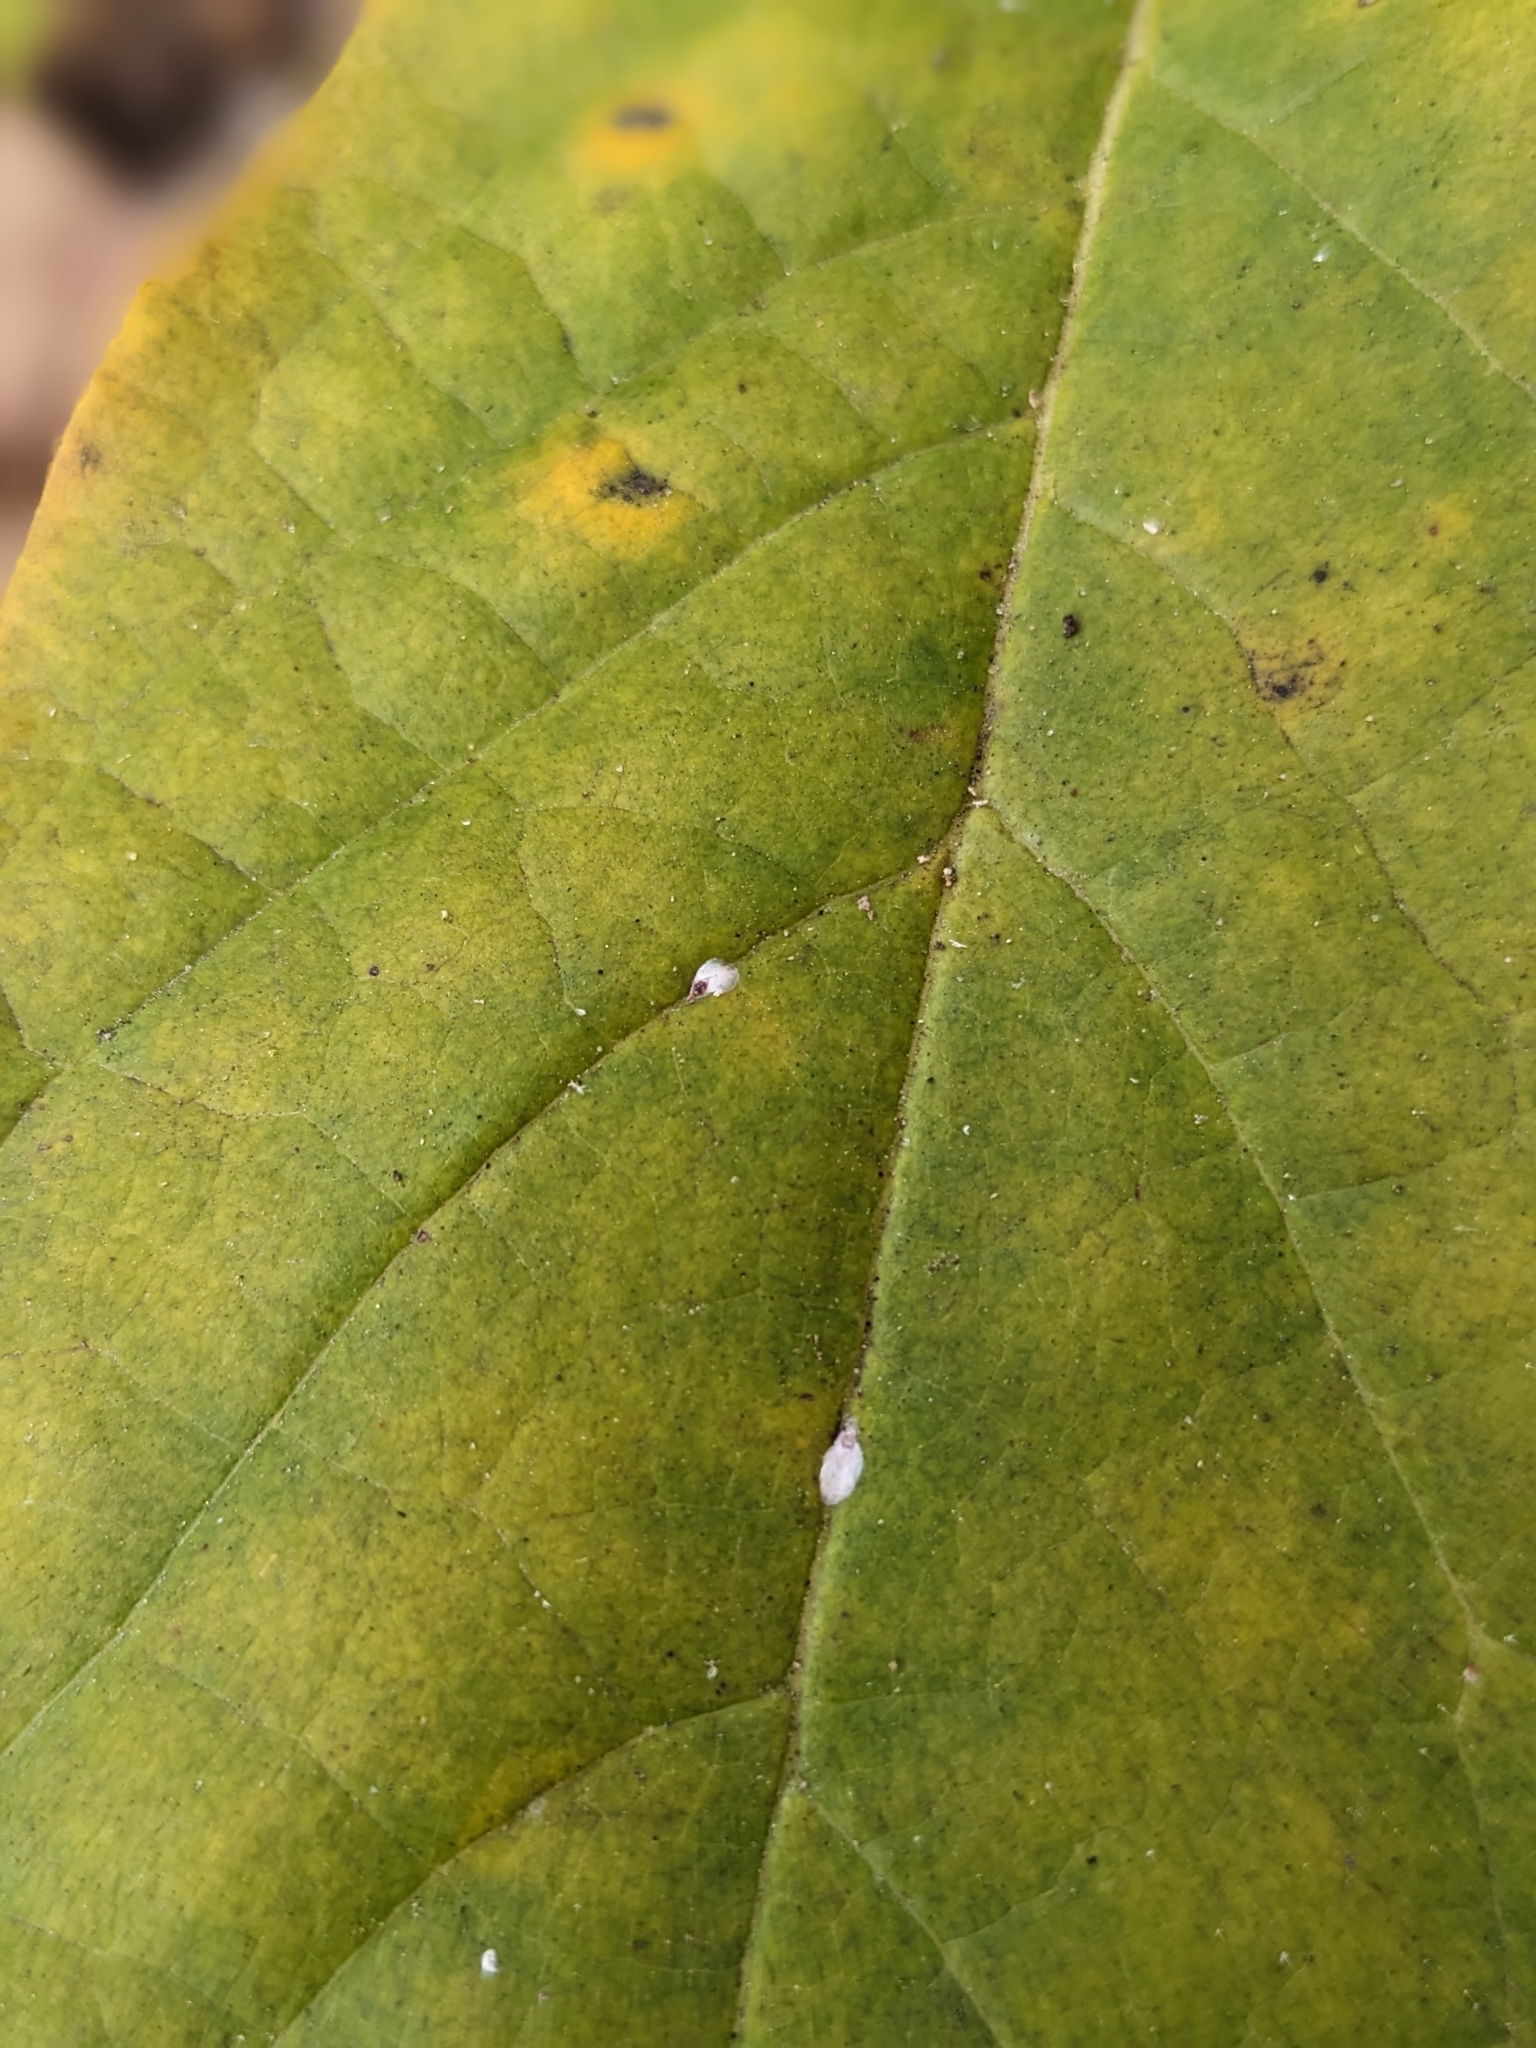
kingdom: Plantae
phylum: Tracheophyta
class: Magnoliopsida
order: Magnoliales
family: Annonaceae
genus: Asimina
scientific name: Asimina parviflora
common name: Dwarf pawpaw
